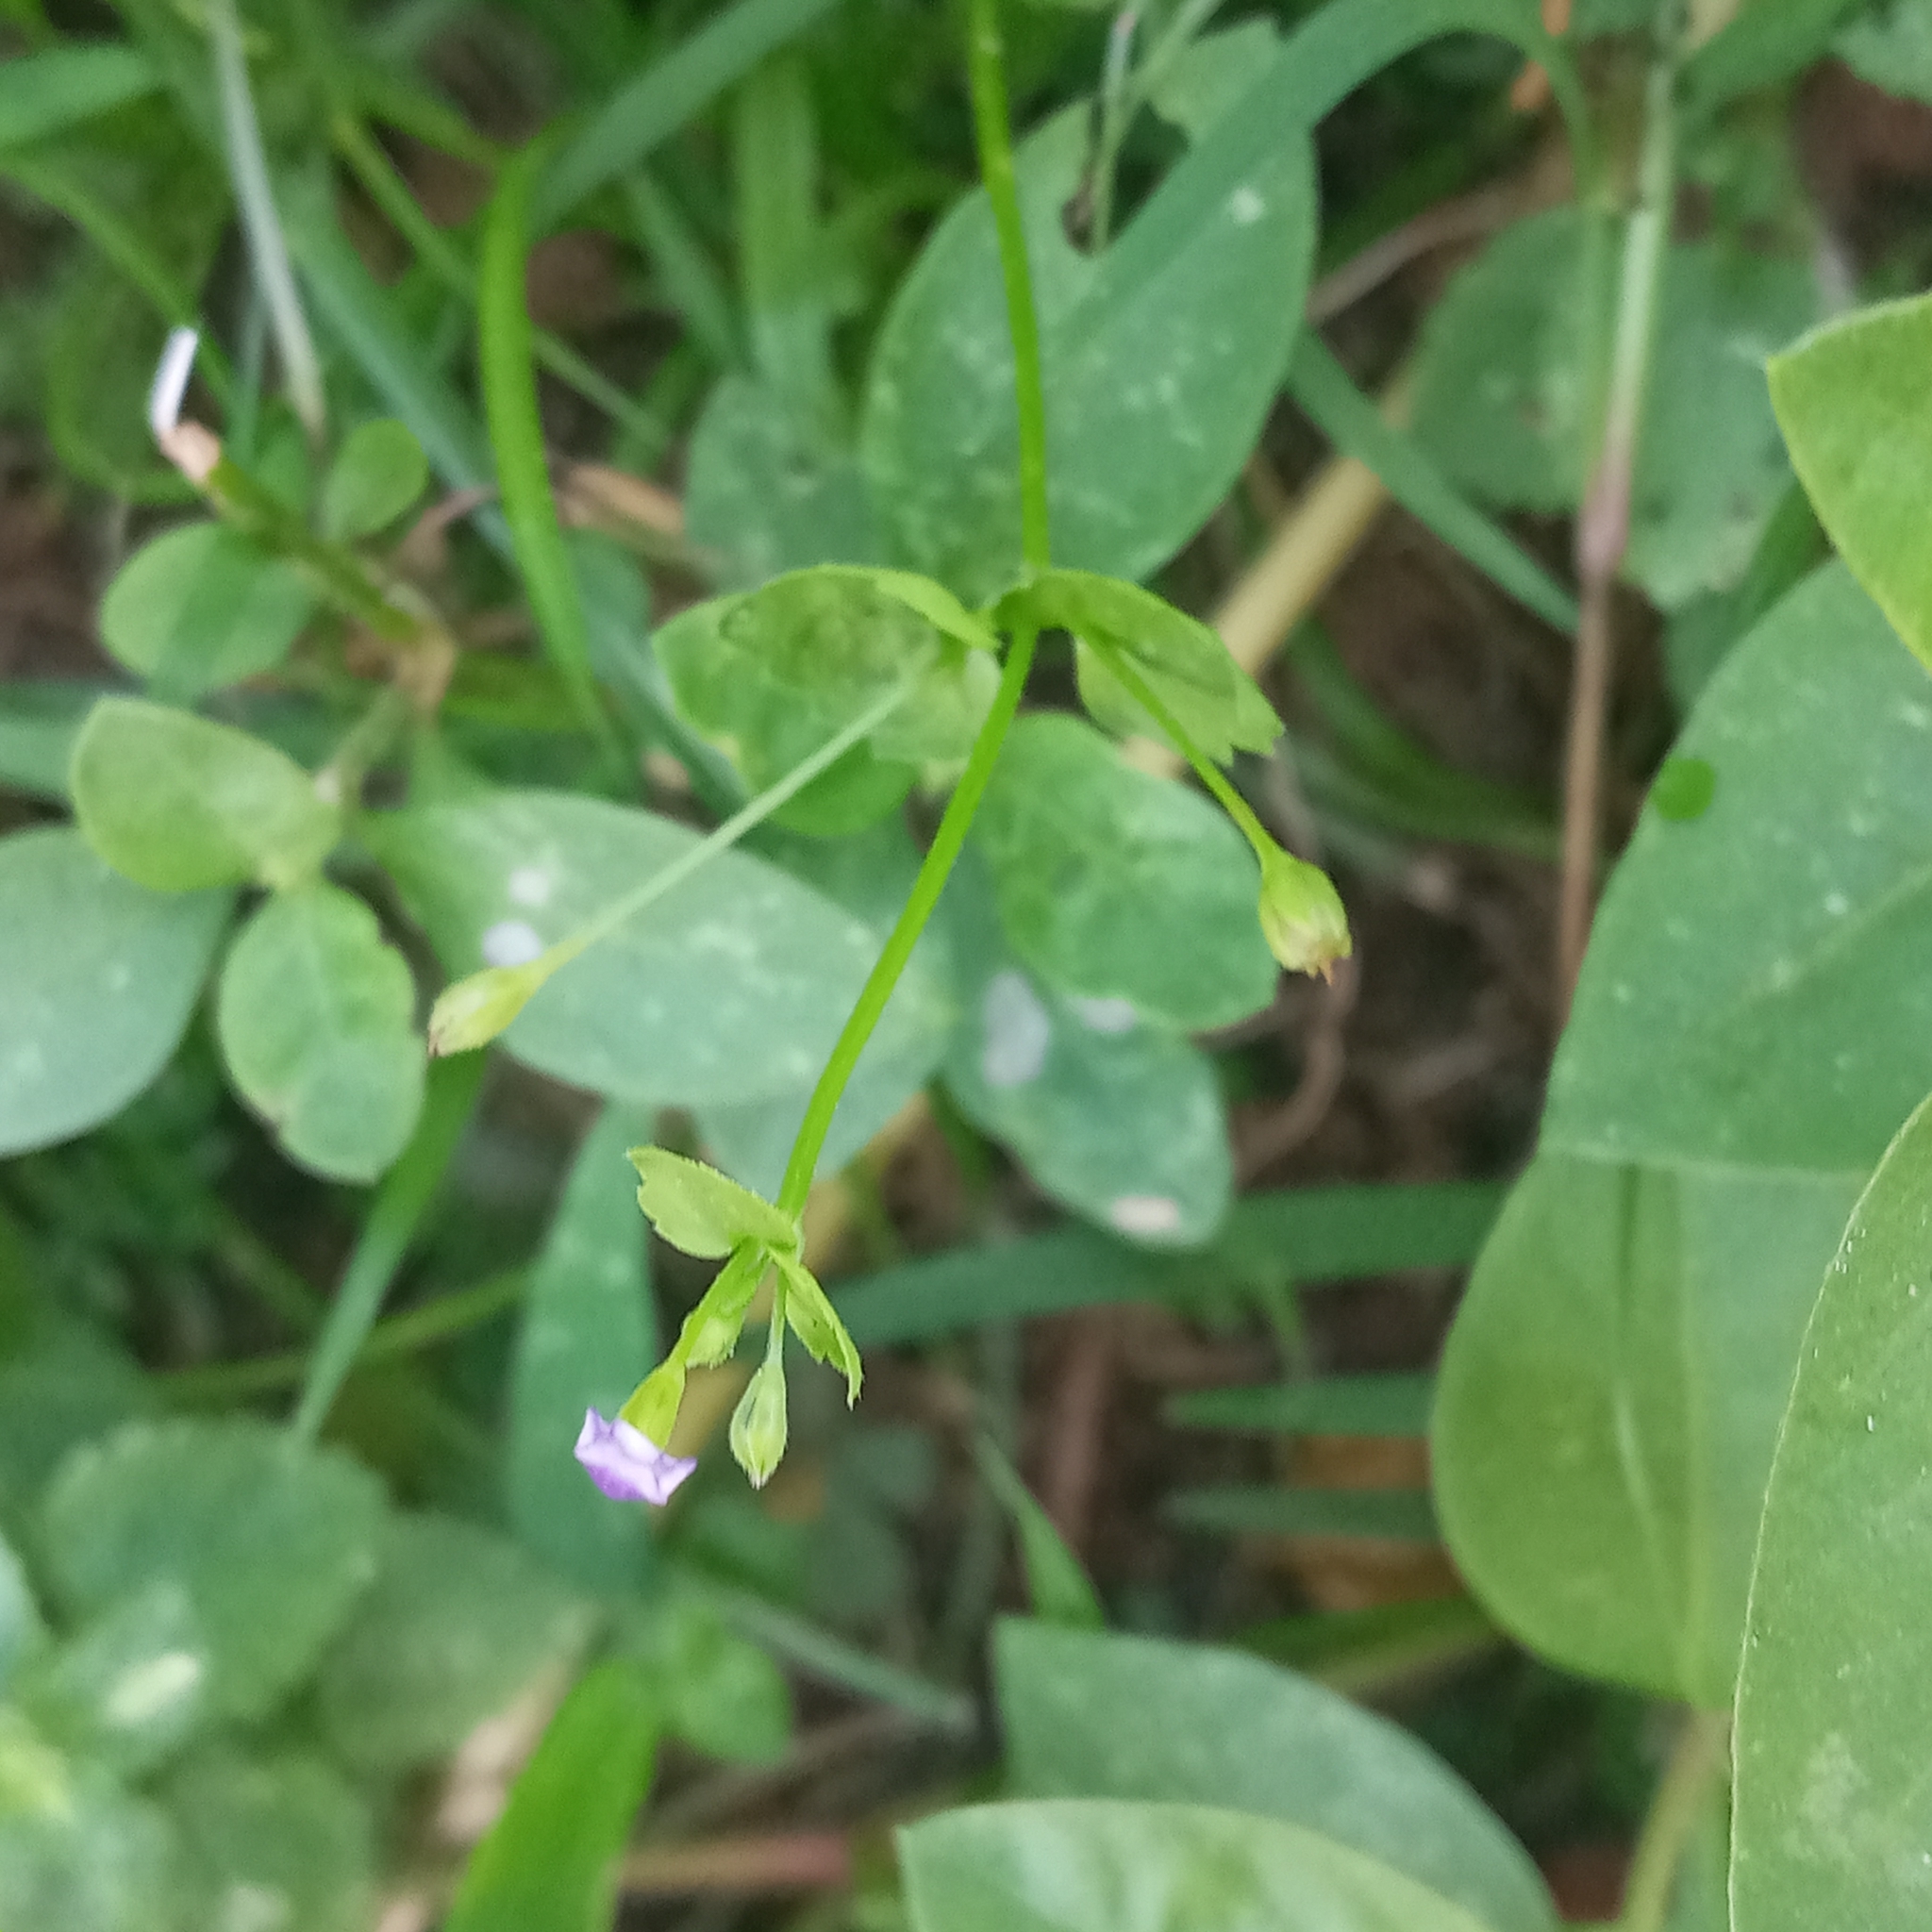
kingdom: Plantae
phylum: Tracheophyta
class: Magnoliopsida
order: Lamiales
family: Linderniaceae
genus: Torenia
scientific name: Torenia crustacea
